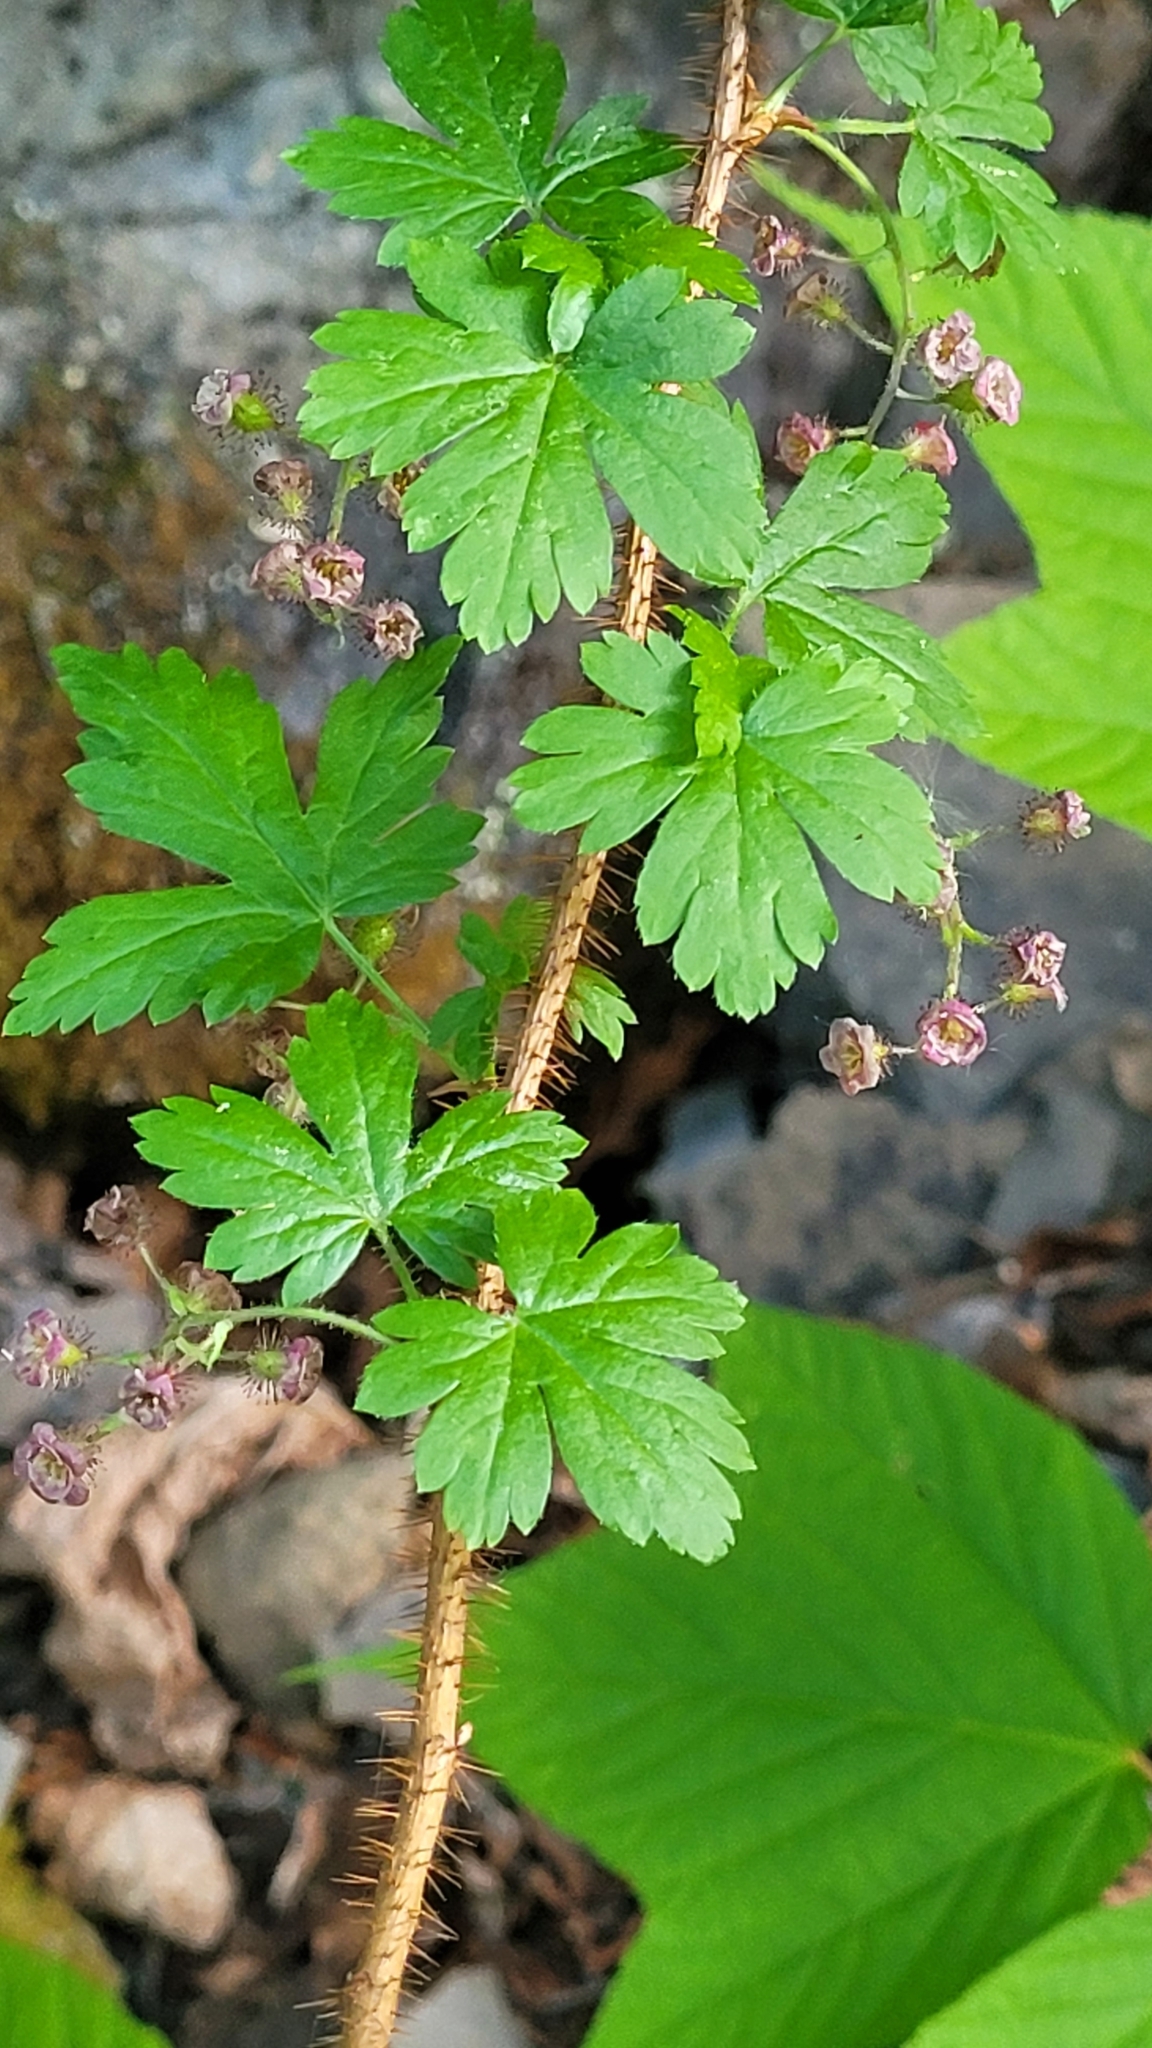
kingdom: Plantae
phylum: Tracheophyta
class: Magnoliopsida
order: Saxifragales
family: Grossulariaceae
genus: Ribes
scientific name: Ribes lacustre
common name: Black gooseberry
